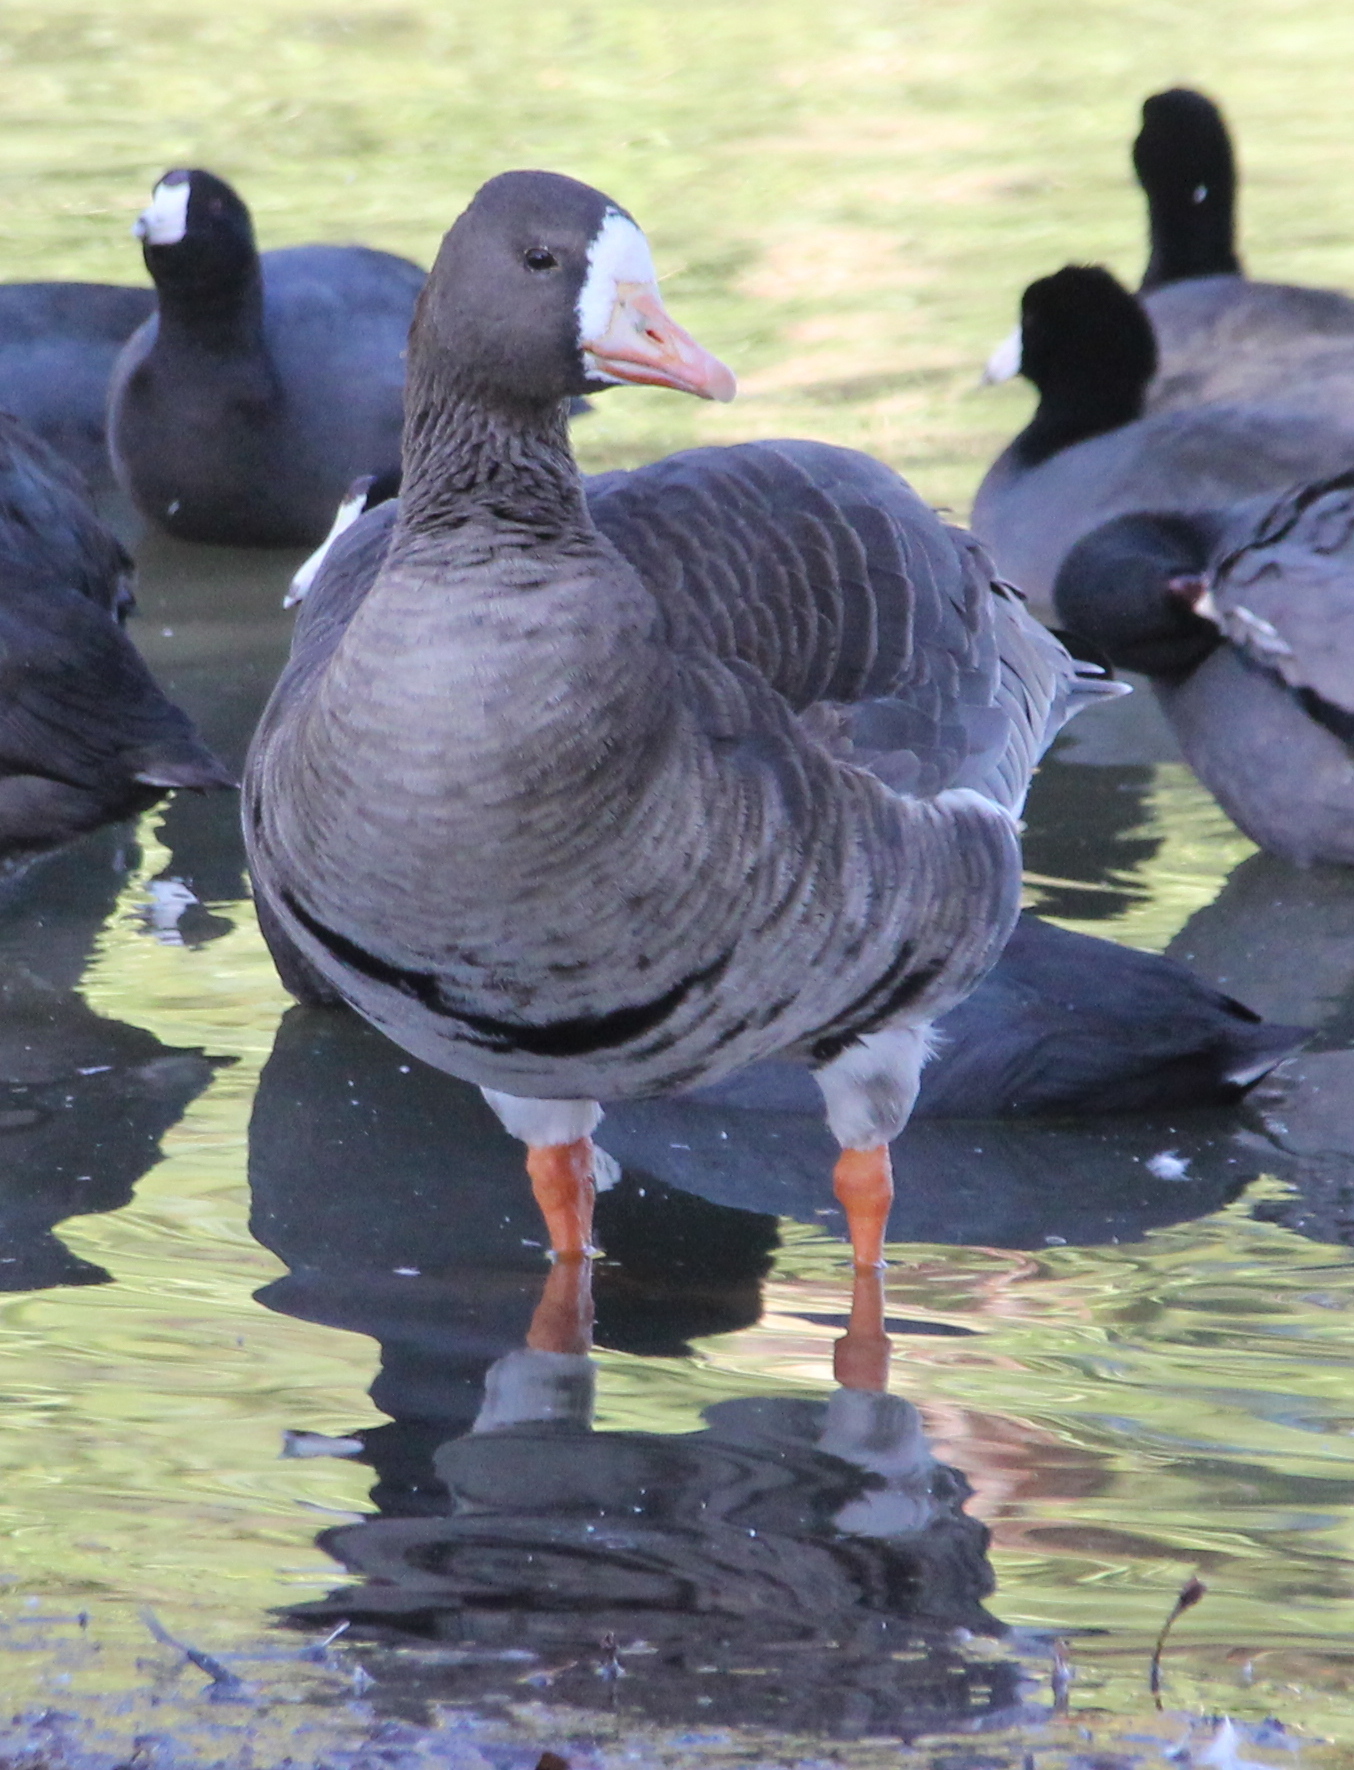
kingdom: Animalia
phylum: Chordata
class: Aves
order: Anseriformes
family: Anatidae
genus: Anser
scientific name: Anser albifrons
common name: Greater white-fronted goose
